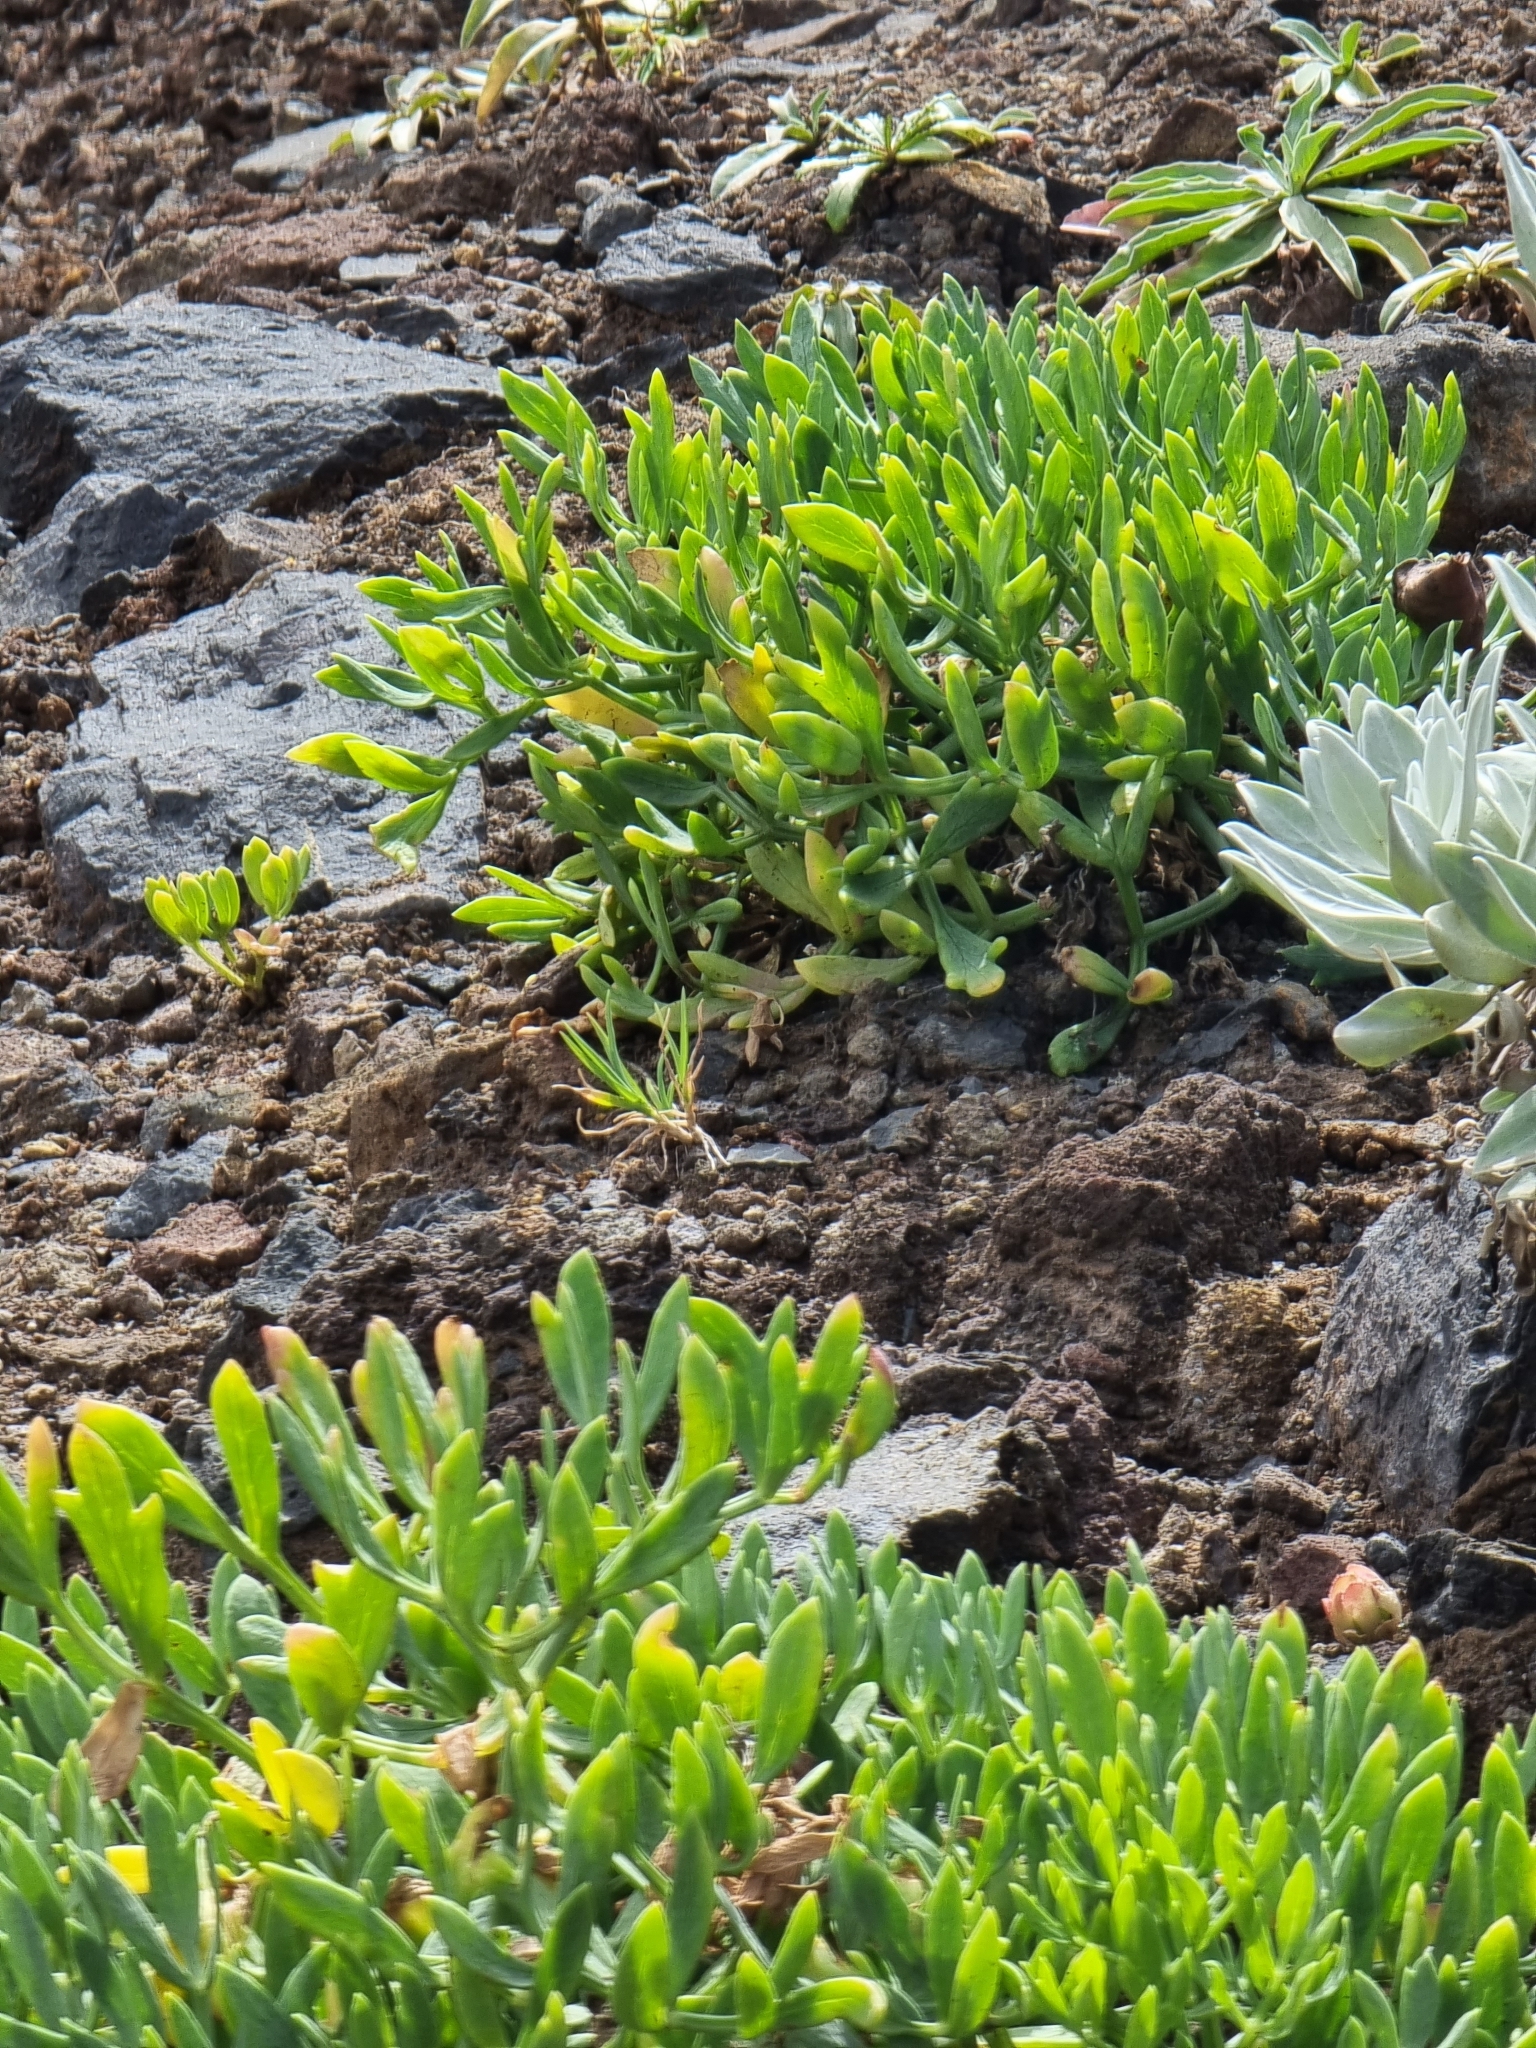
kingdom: Plantae
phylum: Tracheophyta
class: Magnoliopsida
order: Apiales
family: Apiaceae
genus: Crithmum
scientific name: Crithmum maritimum
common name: Rock samphire
